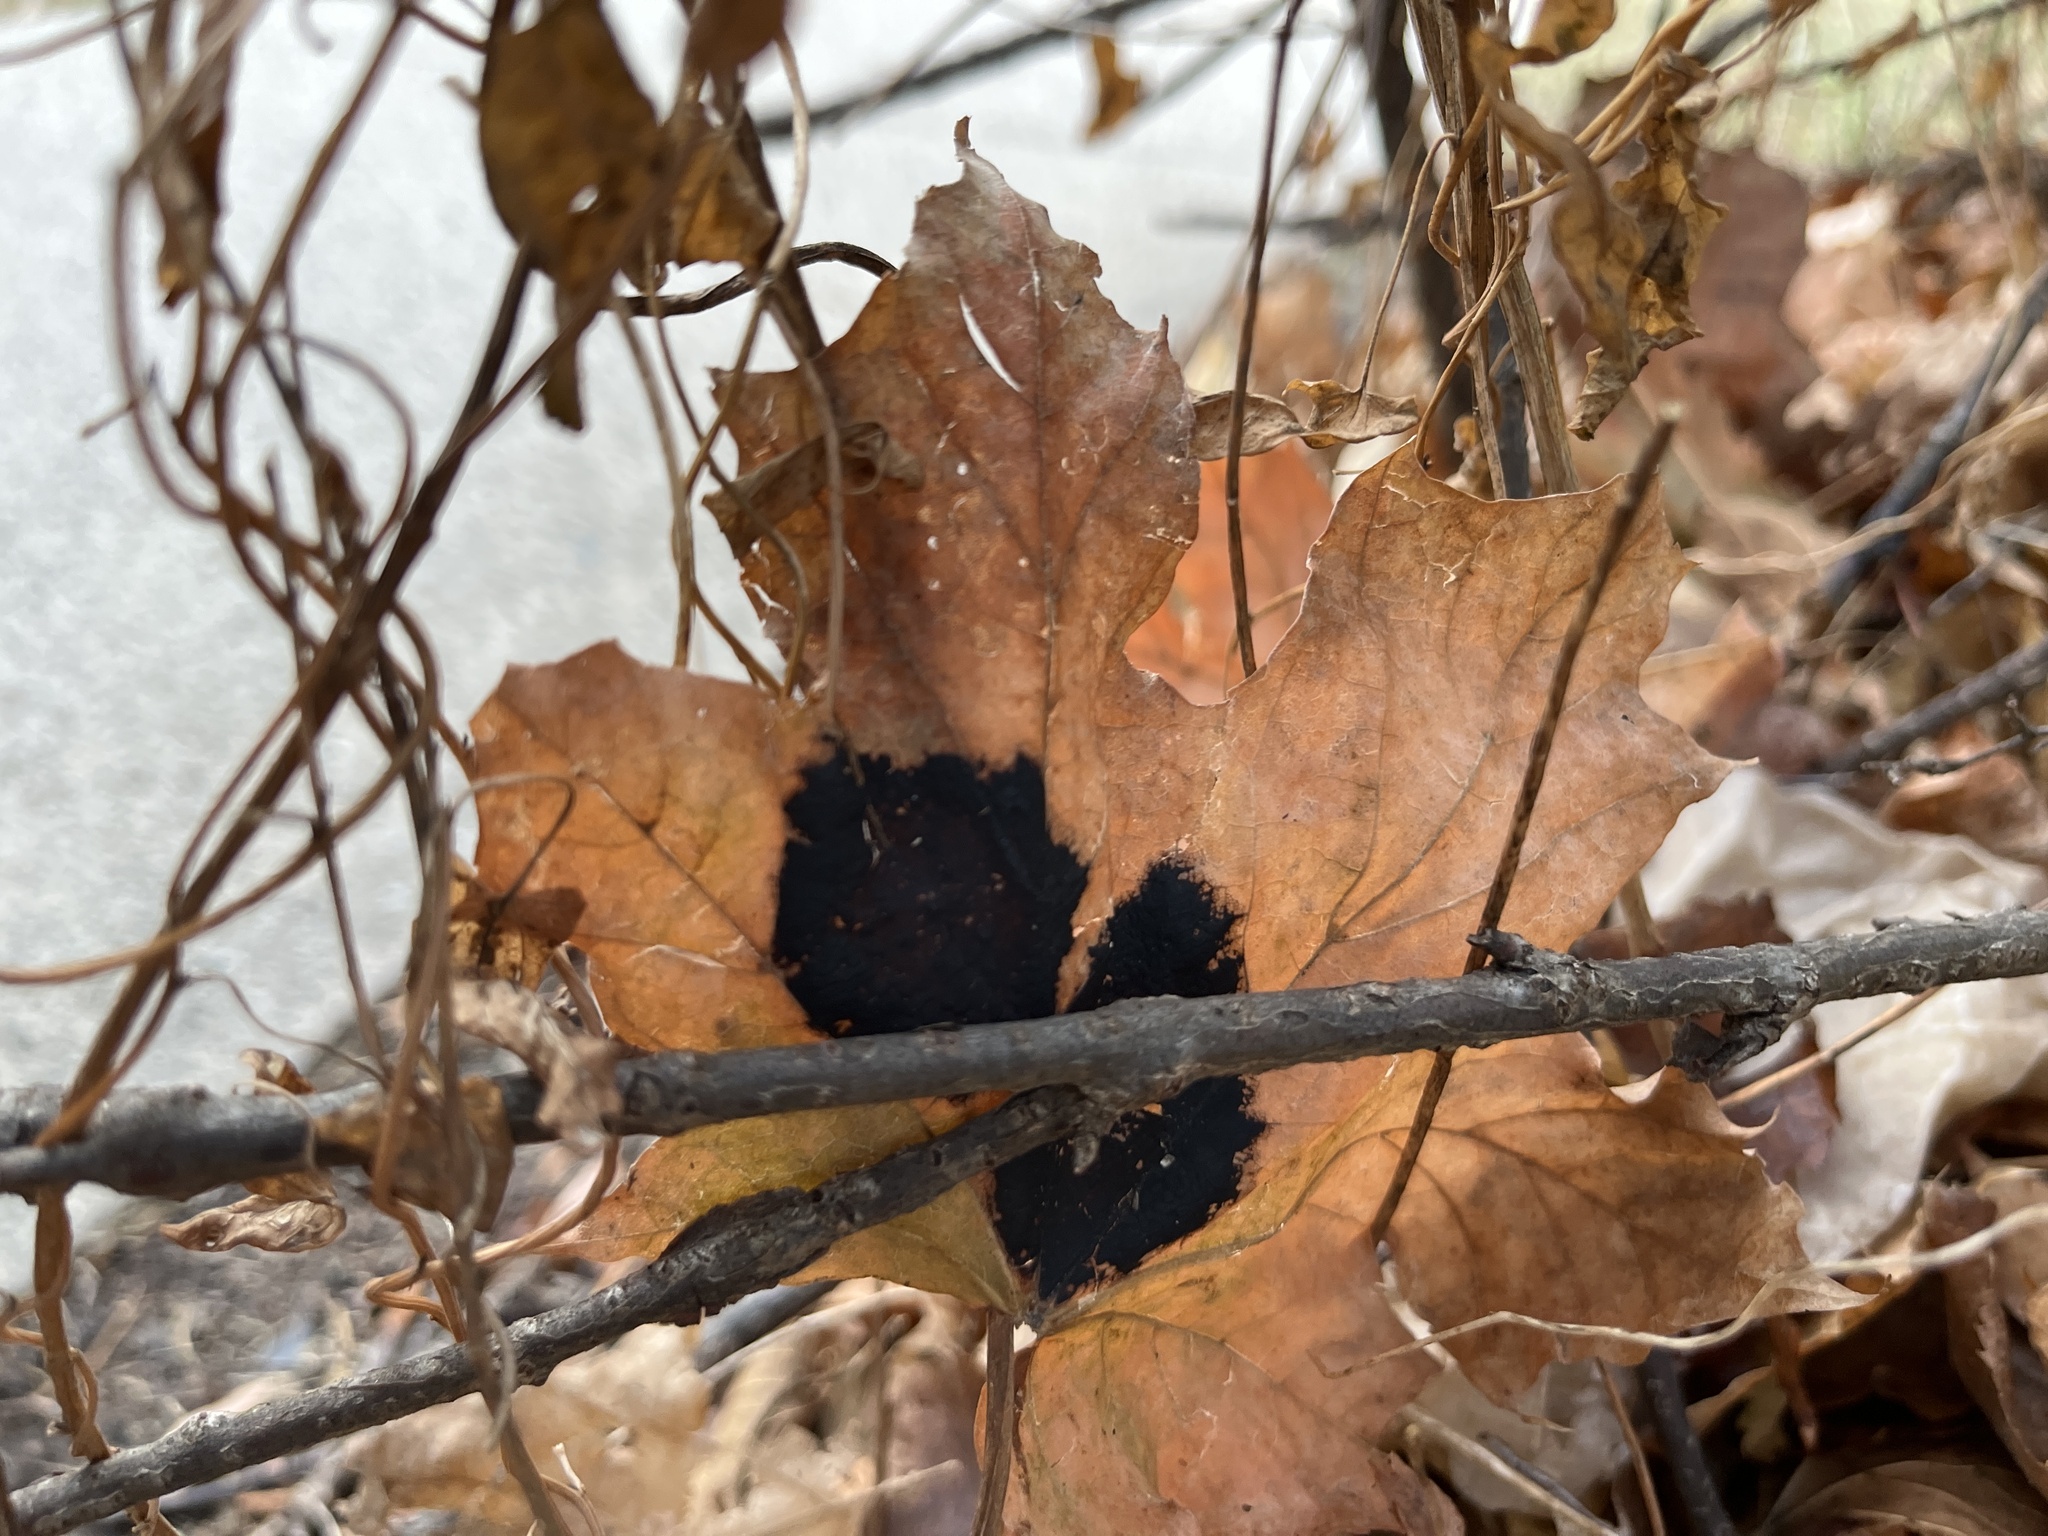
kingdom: Fungi
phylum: Ascomycota
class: Leotiomycetes
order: Rhytismatales
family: Rhytismataceae
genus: Rhytisma
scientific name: Rhytisma acerinum
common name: European tar spot
